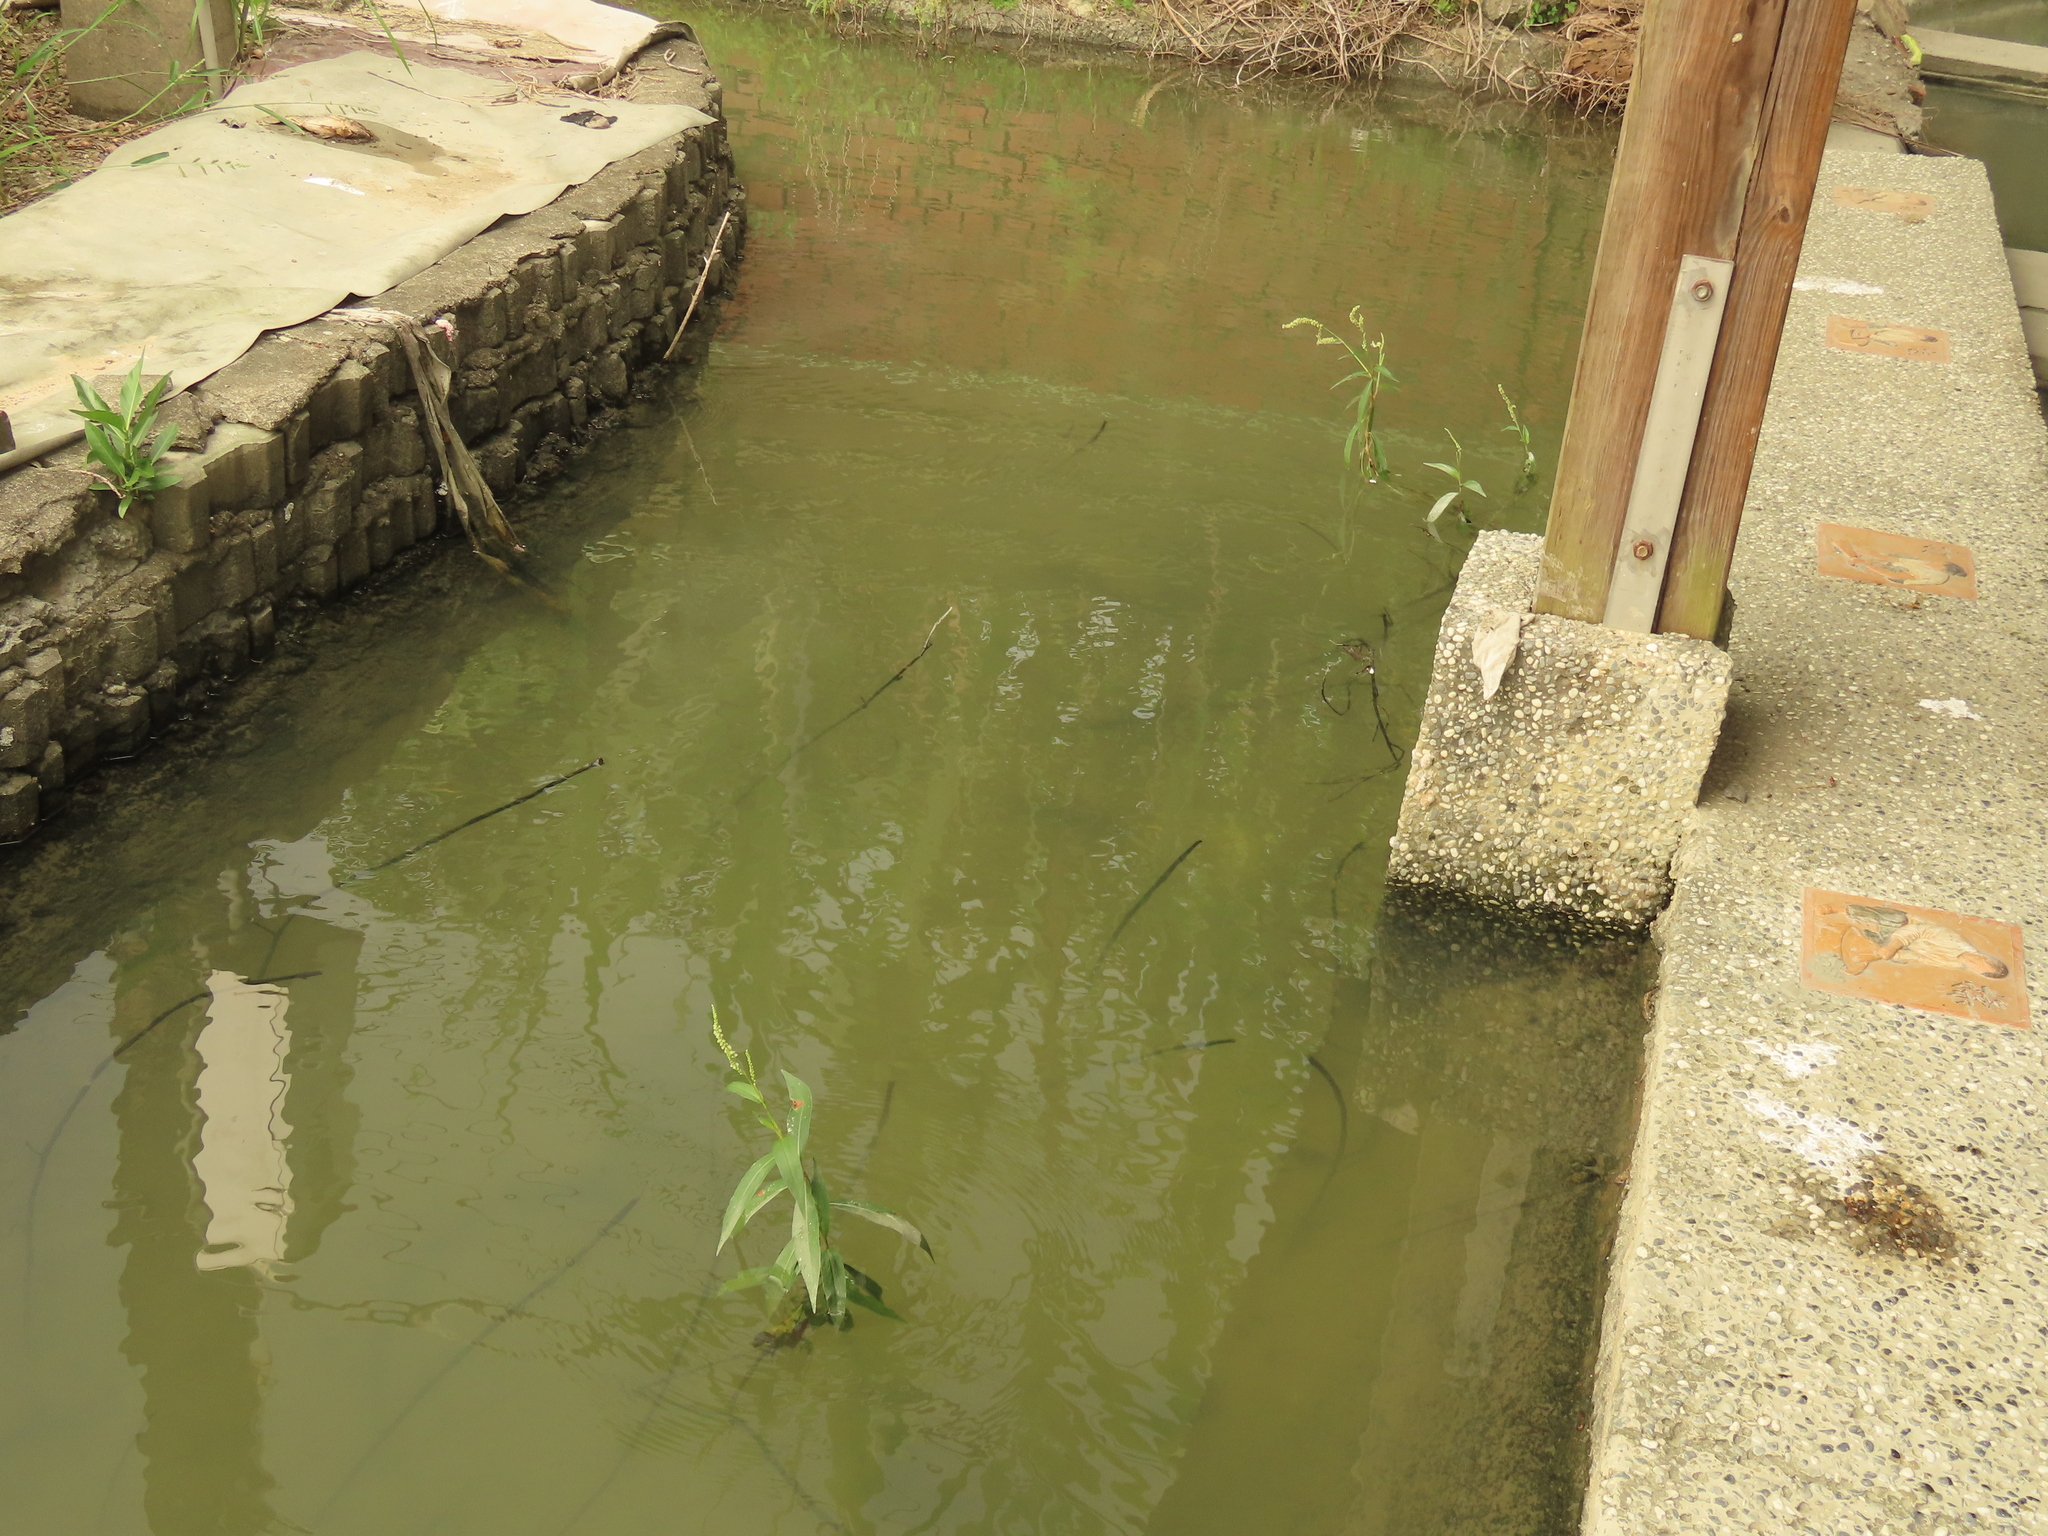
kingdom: Plantae
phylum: Tracheophyta
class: Magnoliopsida
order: Caryophyllales
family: Polygonaceae
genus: Persicaria
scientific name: Persicaria barbata
